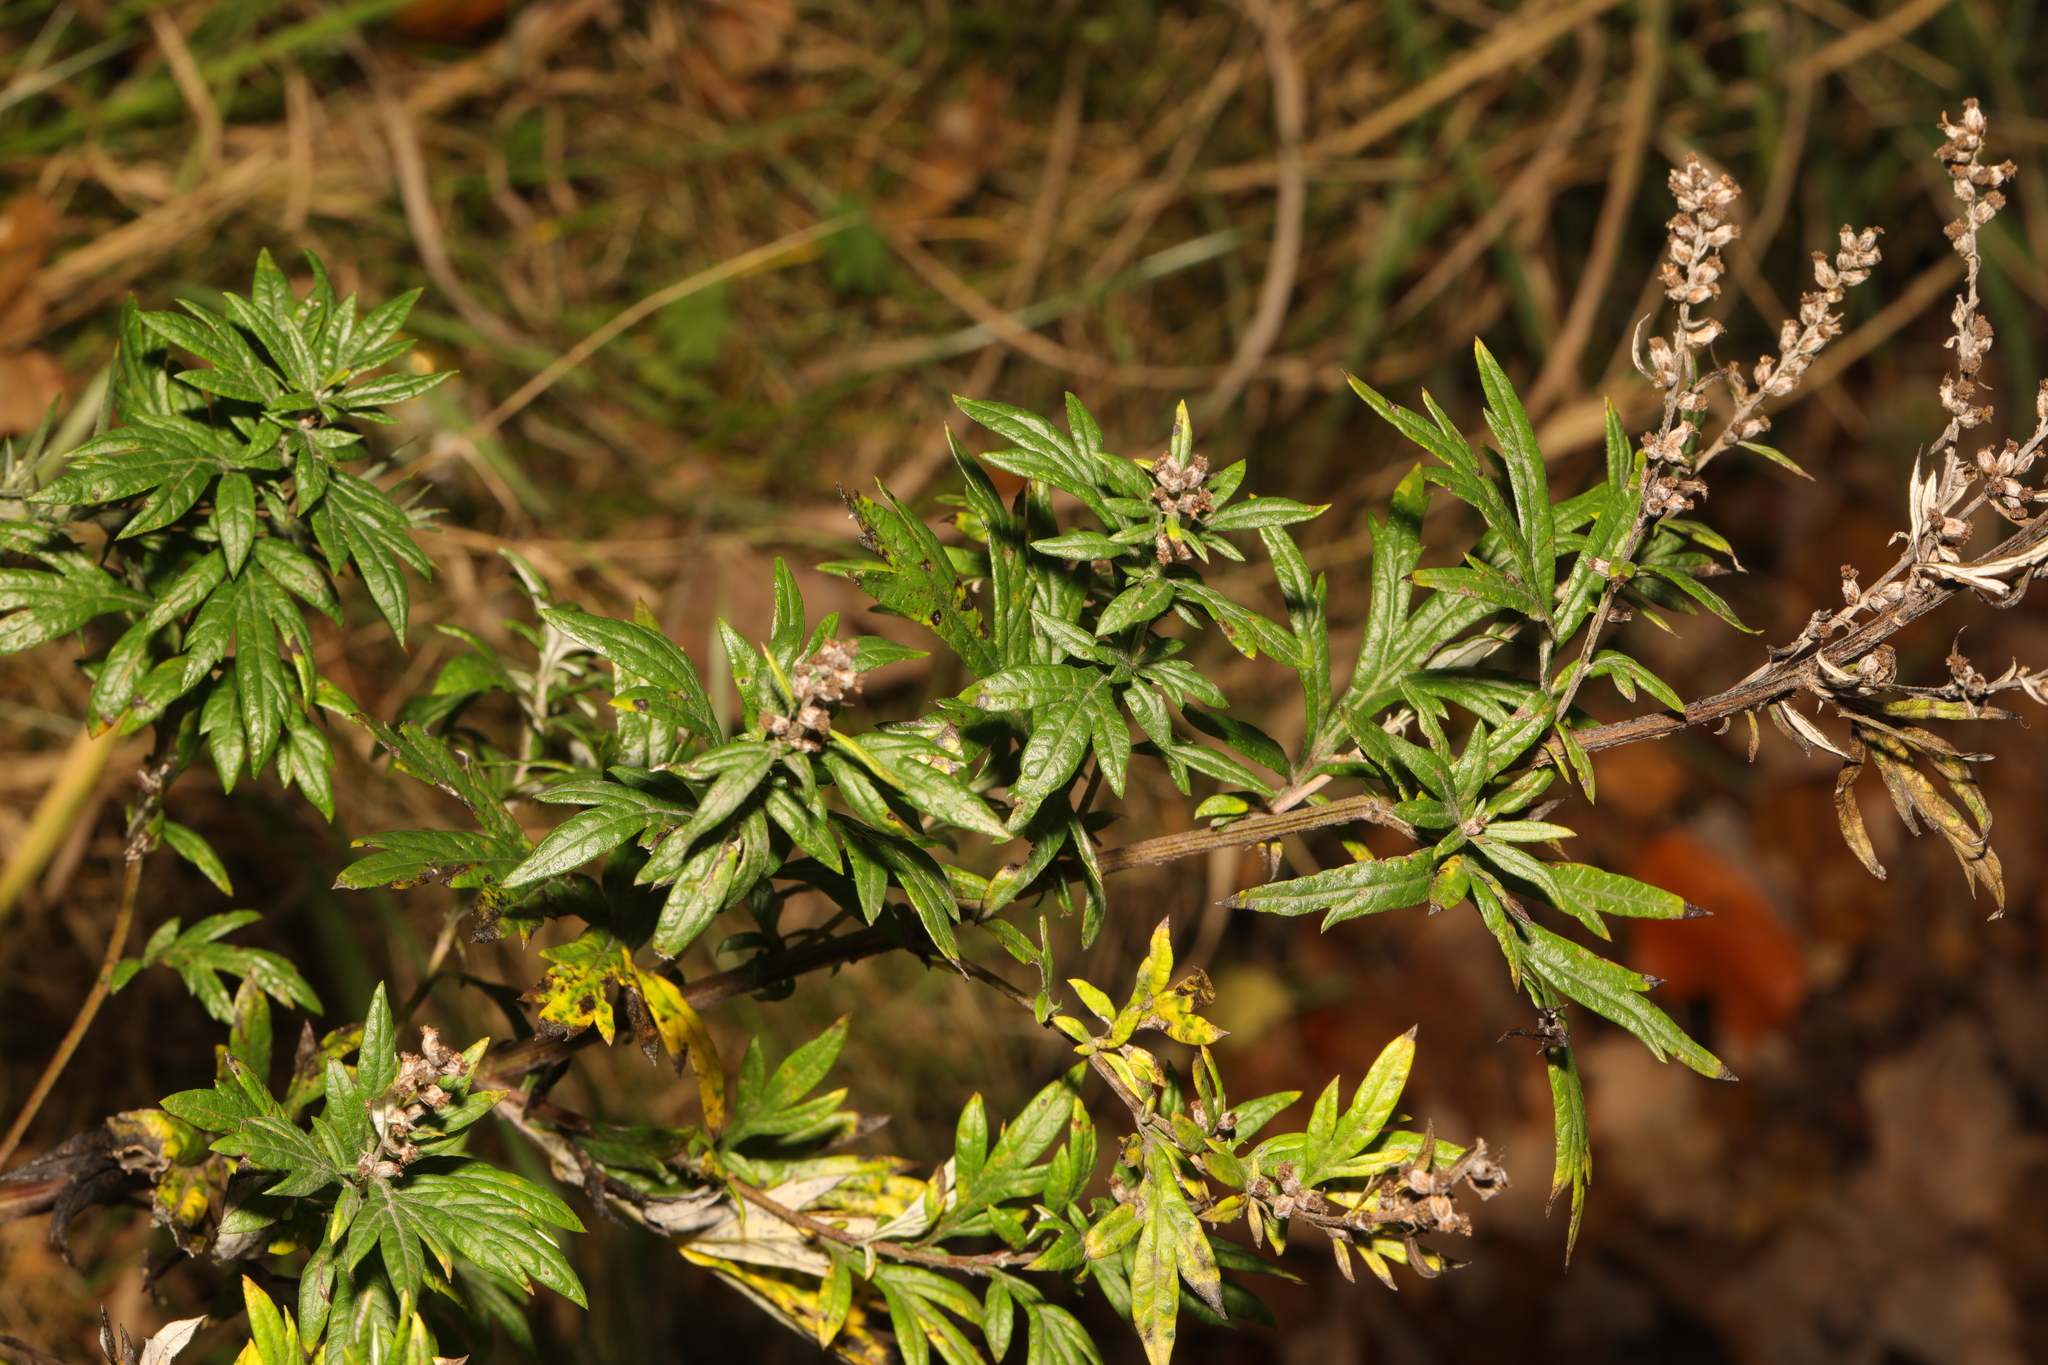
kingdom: Plantae
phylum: Tracheophyta
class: Magnoliopsida
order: Asterales
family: Asteraceae
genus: Artemisia
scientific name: Artemisia vulgaris
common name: Mugwort
